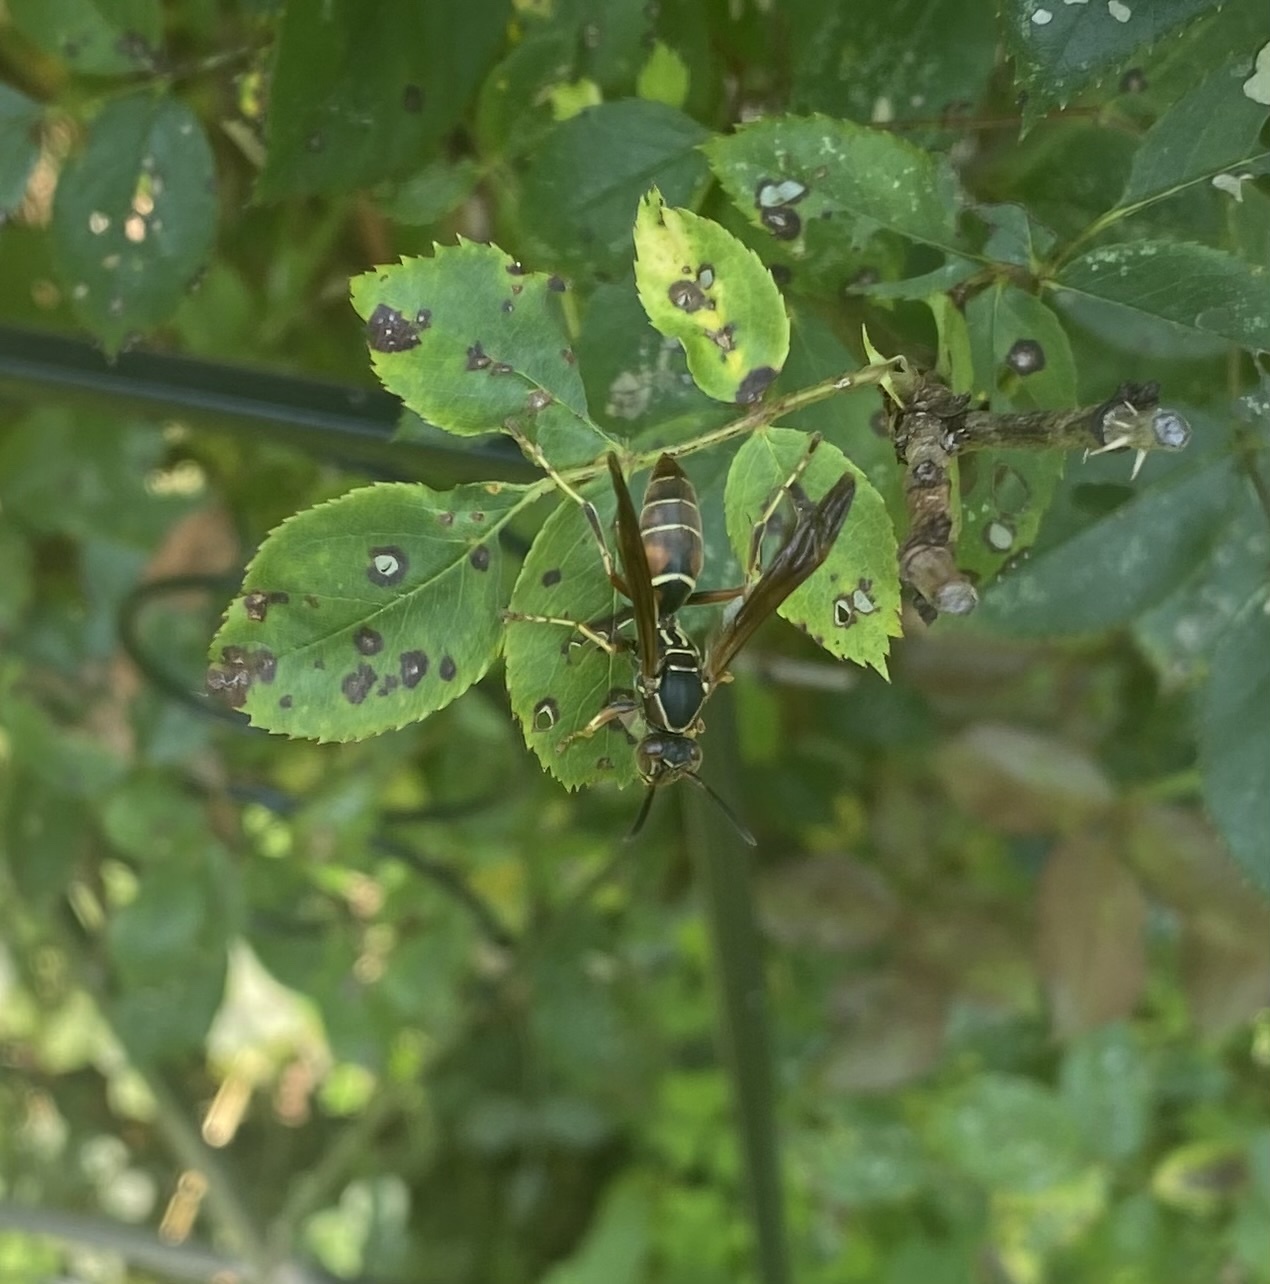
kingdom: Animalia
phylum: Arthropoda
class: Insecta
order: Hymenoptera
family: Eumenidae
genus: Polistes
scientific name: Polistes fuscatus
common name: Dark paper wasp
